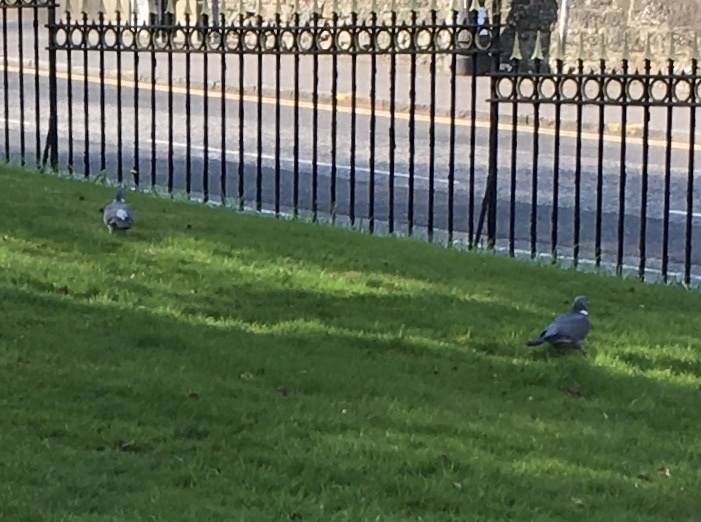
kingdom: Animalia
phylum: Chordata
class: Aves
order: Columbiformes
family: Columbidae
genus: Columba
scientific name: Columba palumbus
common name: Common wood pigeon
